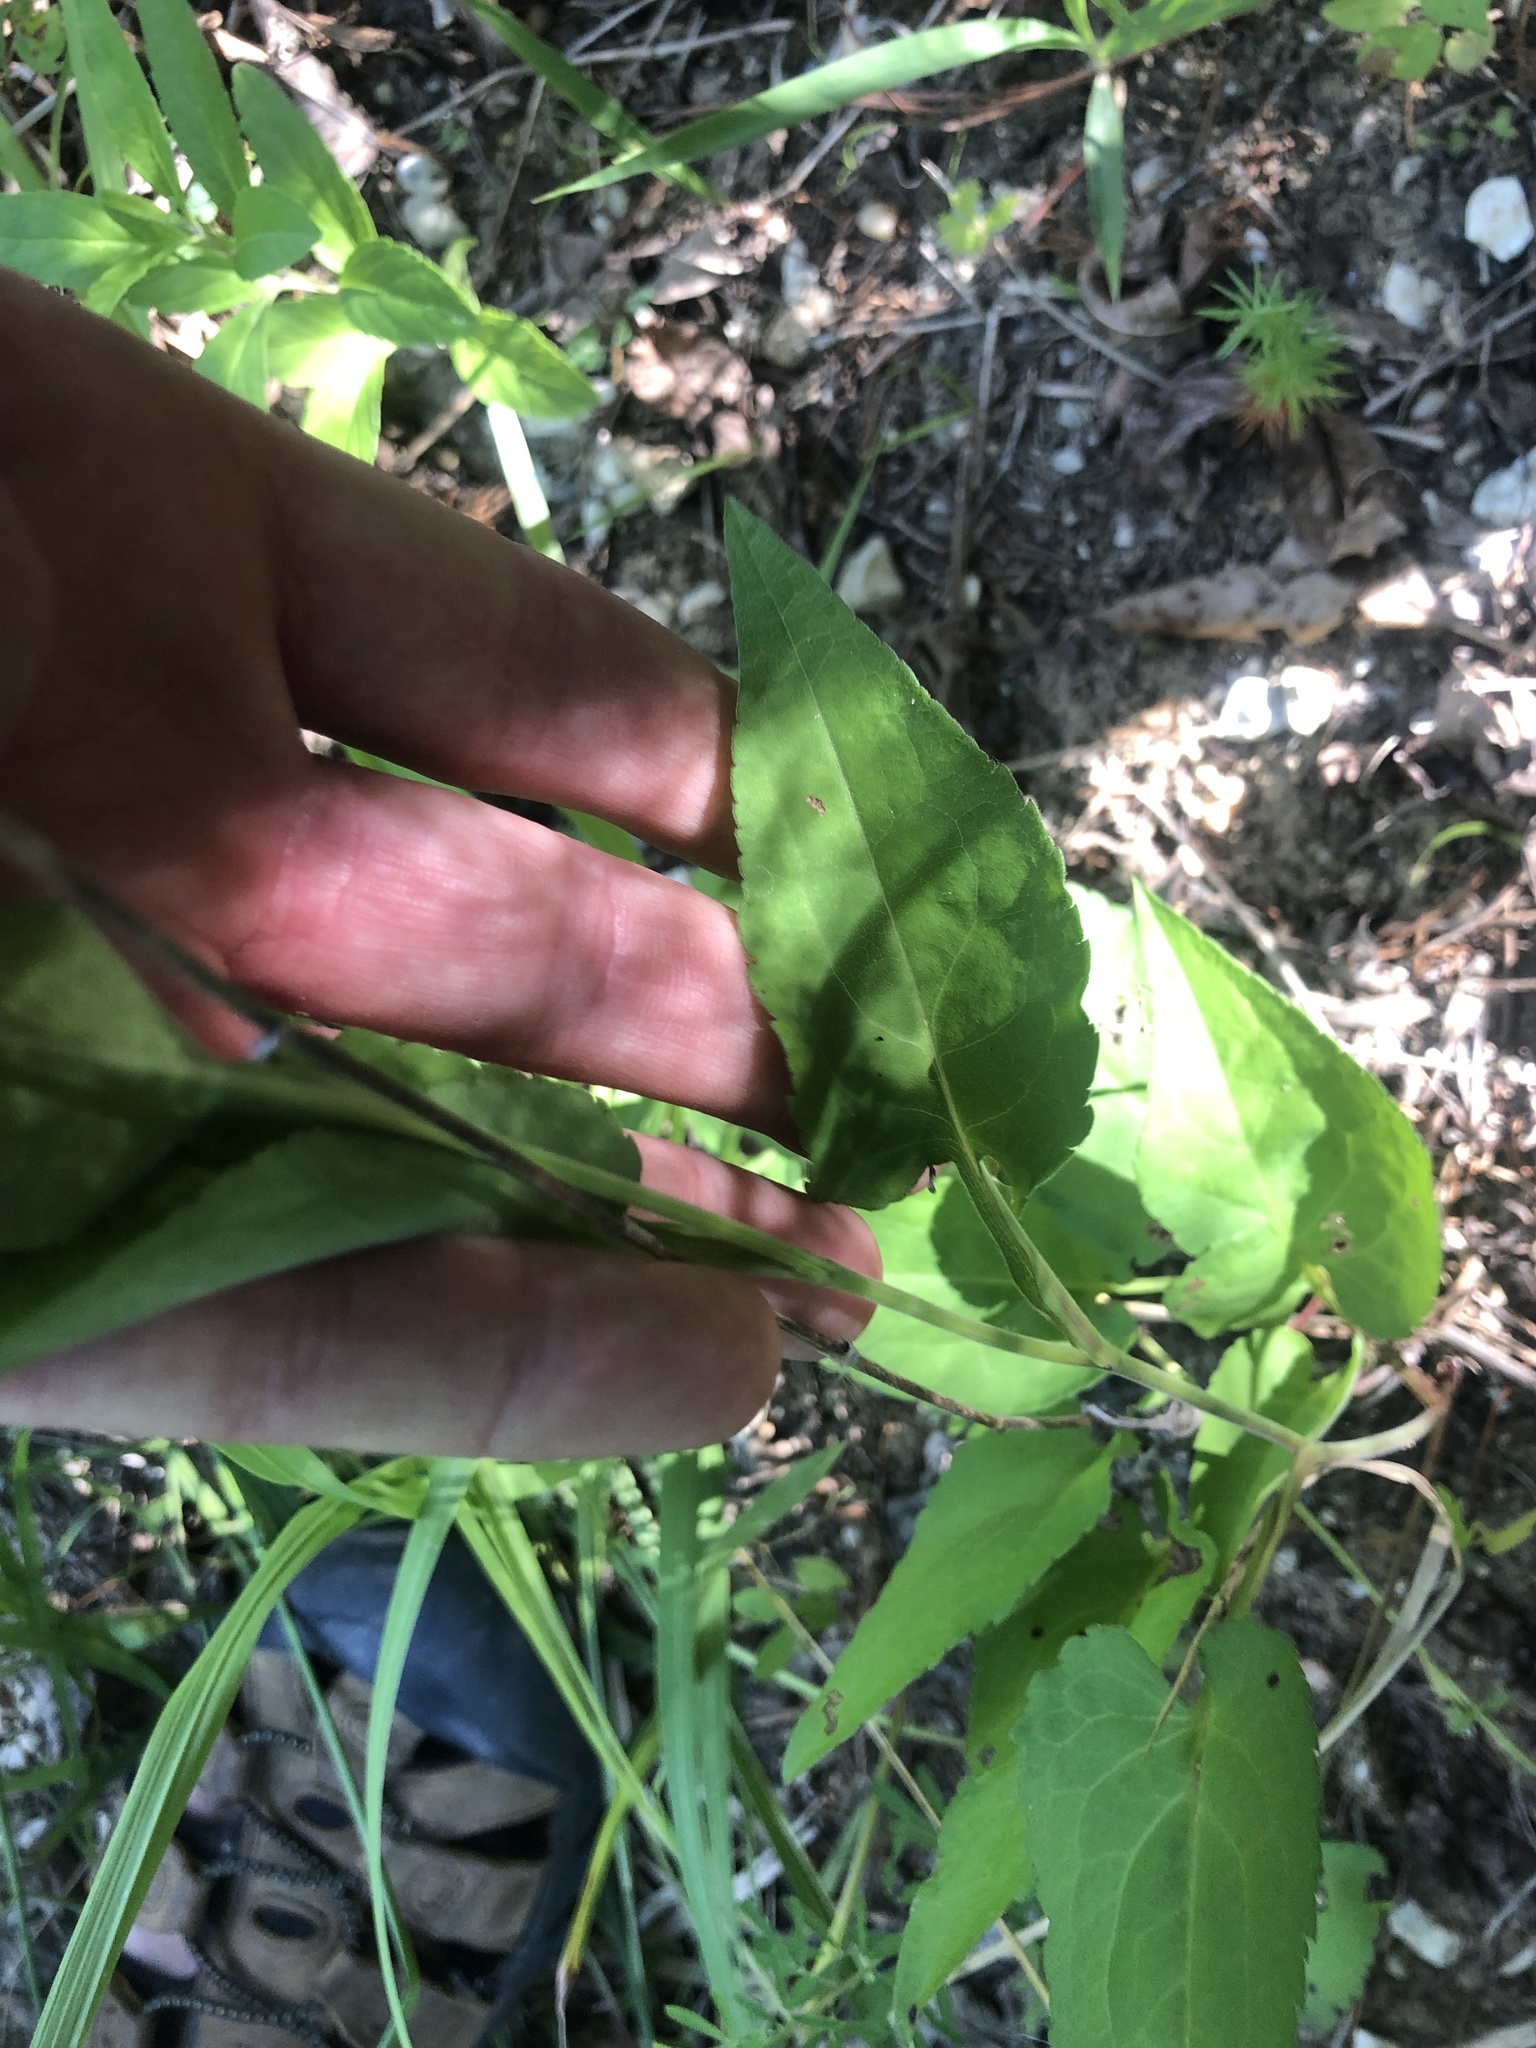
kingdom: Plantae
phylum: Tracheophyta
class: Magnoliopsida
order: Asterales
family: Asteraceae
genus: Symphyotrichum
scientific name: Symphyotrichum drummondii
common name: Drummond's aster
